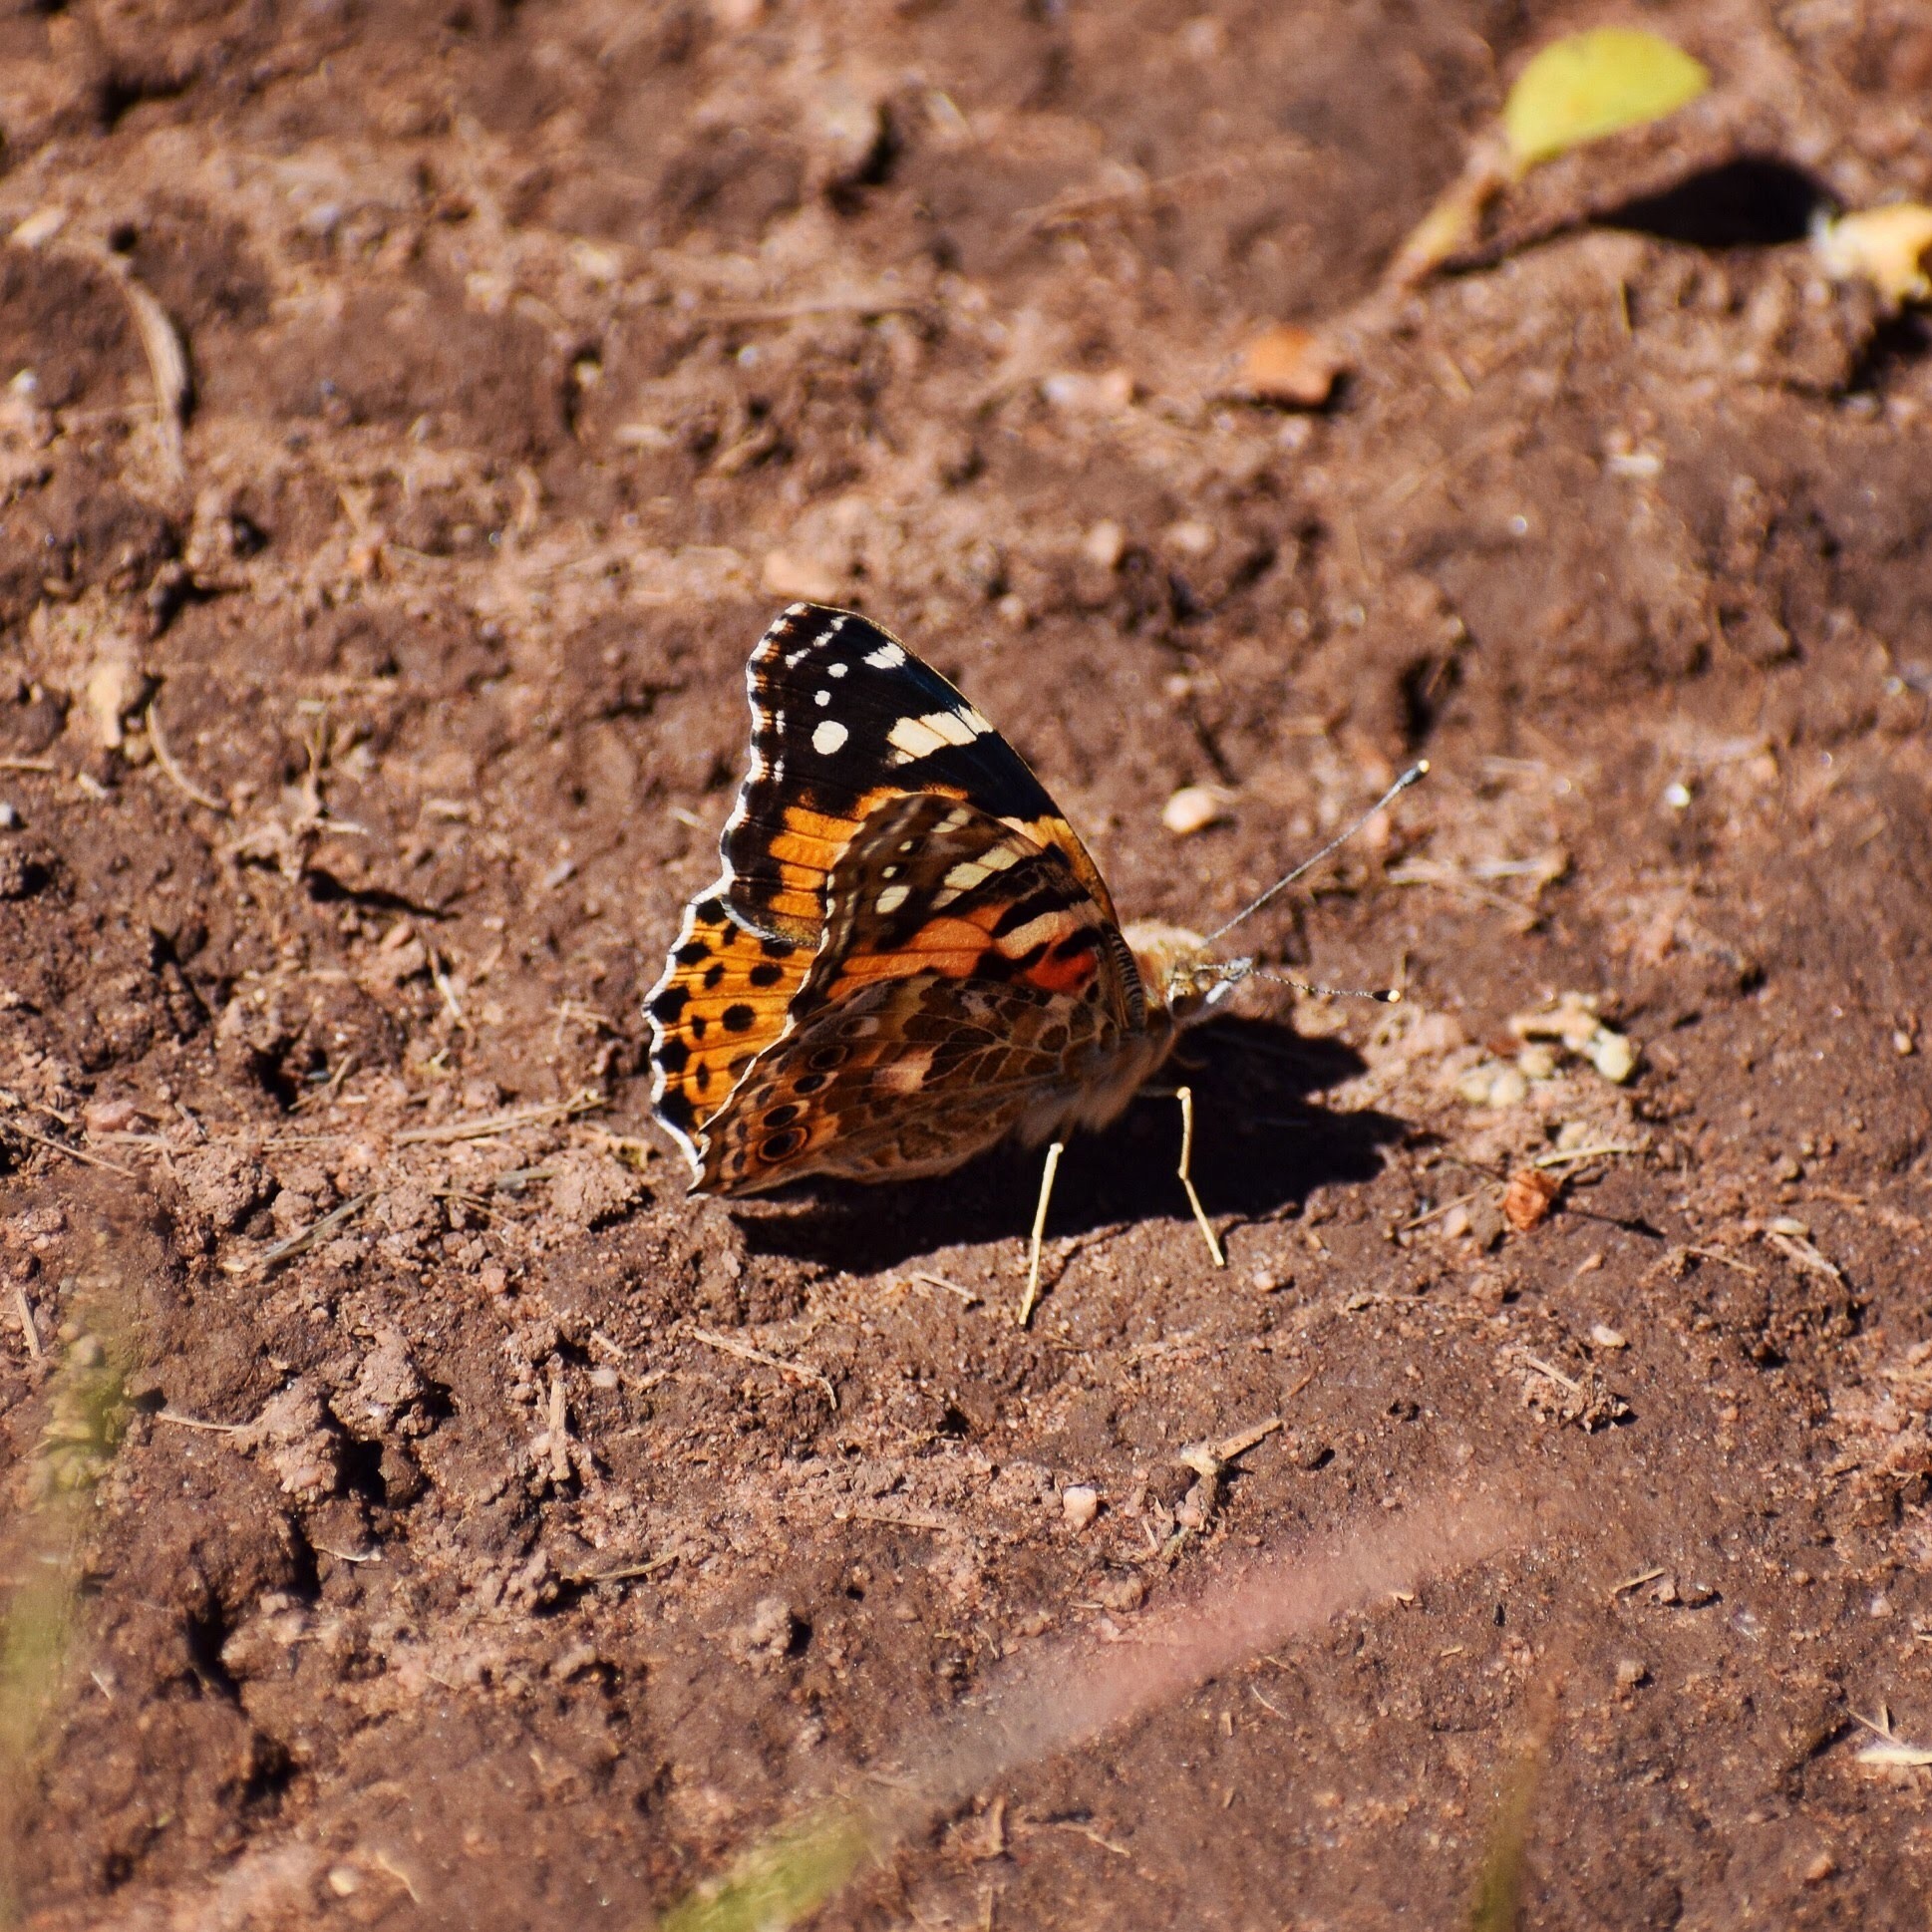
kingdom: Animalia
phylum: Arthropoda
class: Insecta
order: Lepidoptera
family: Nymphalidae
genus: Vanessa
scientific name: Vanessa cardui
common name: Painted lady
